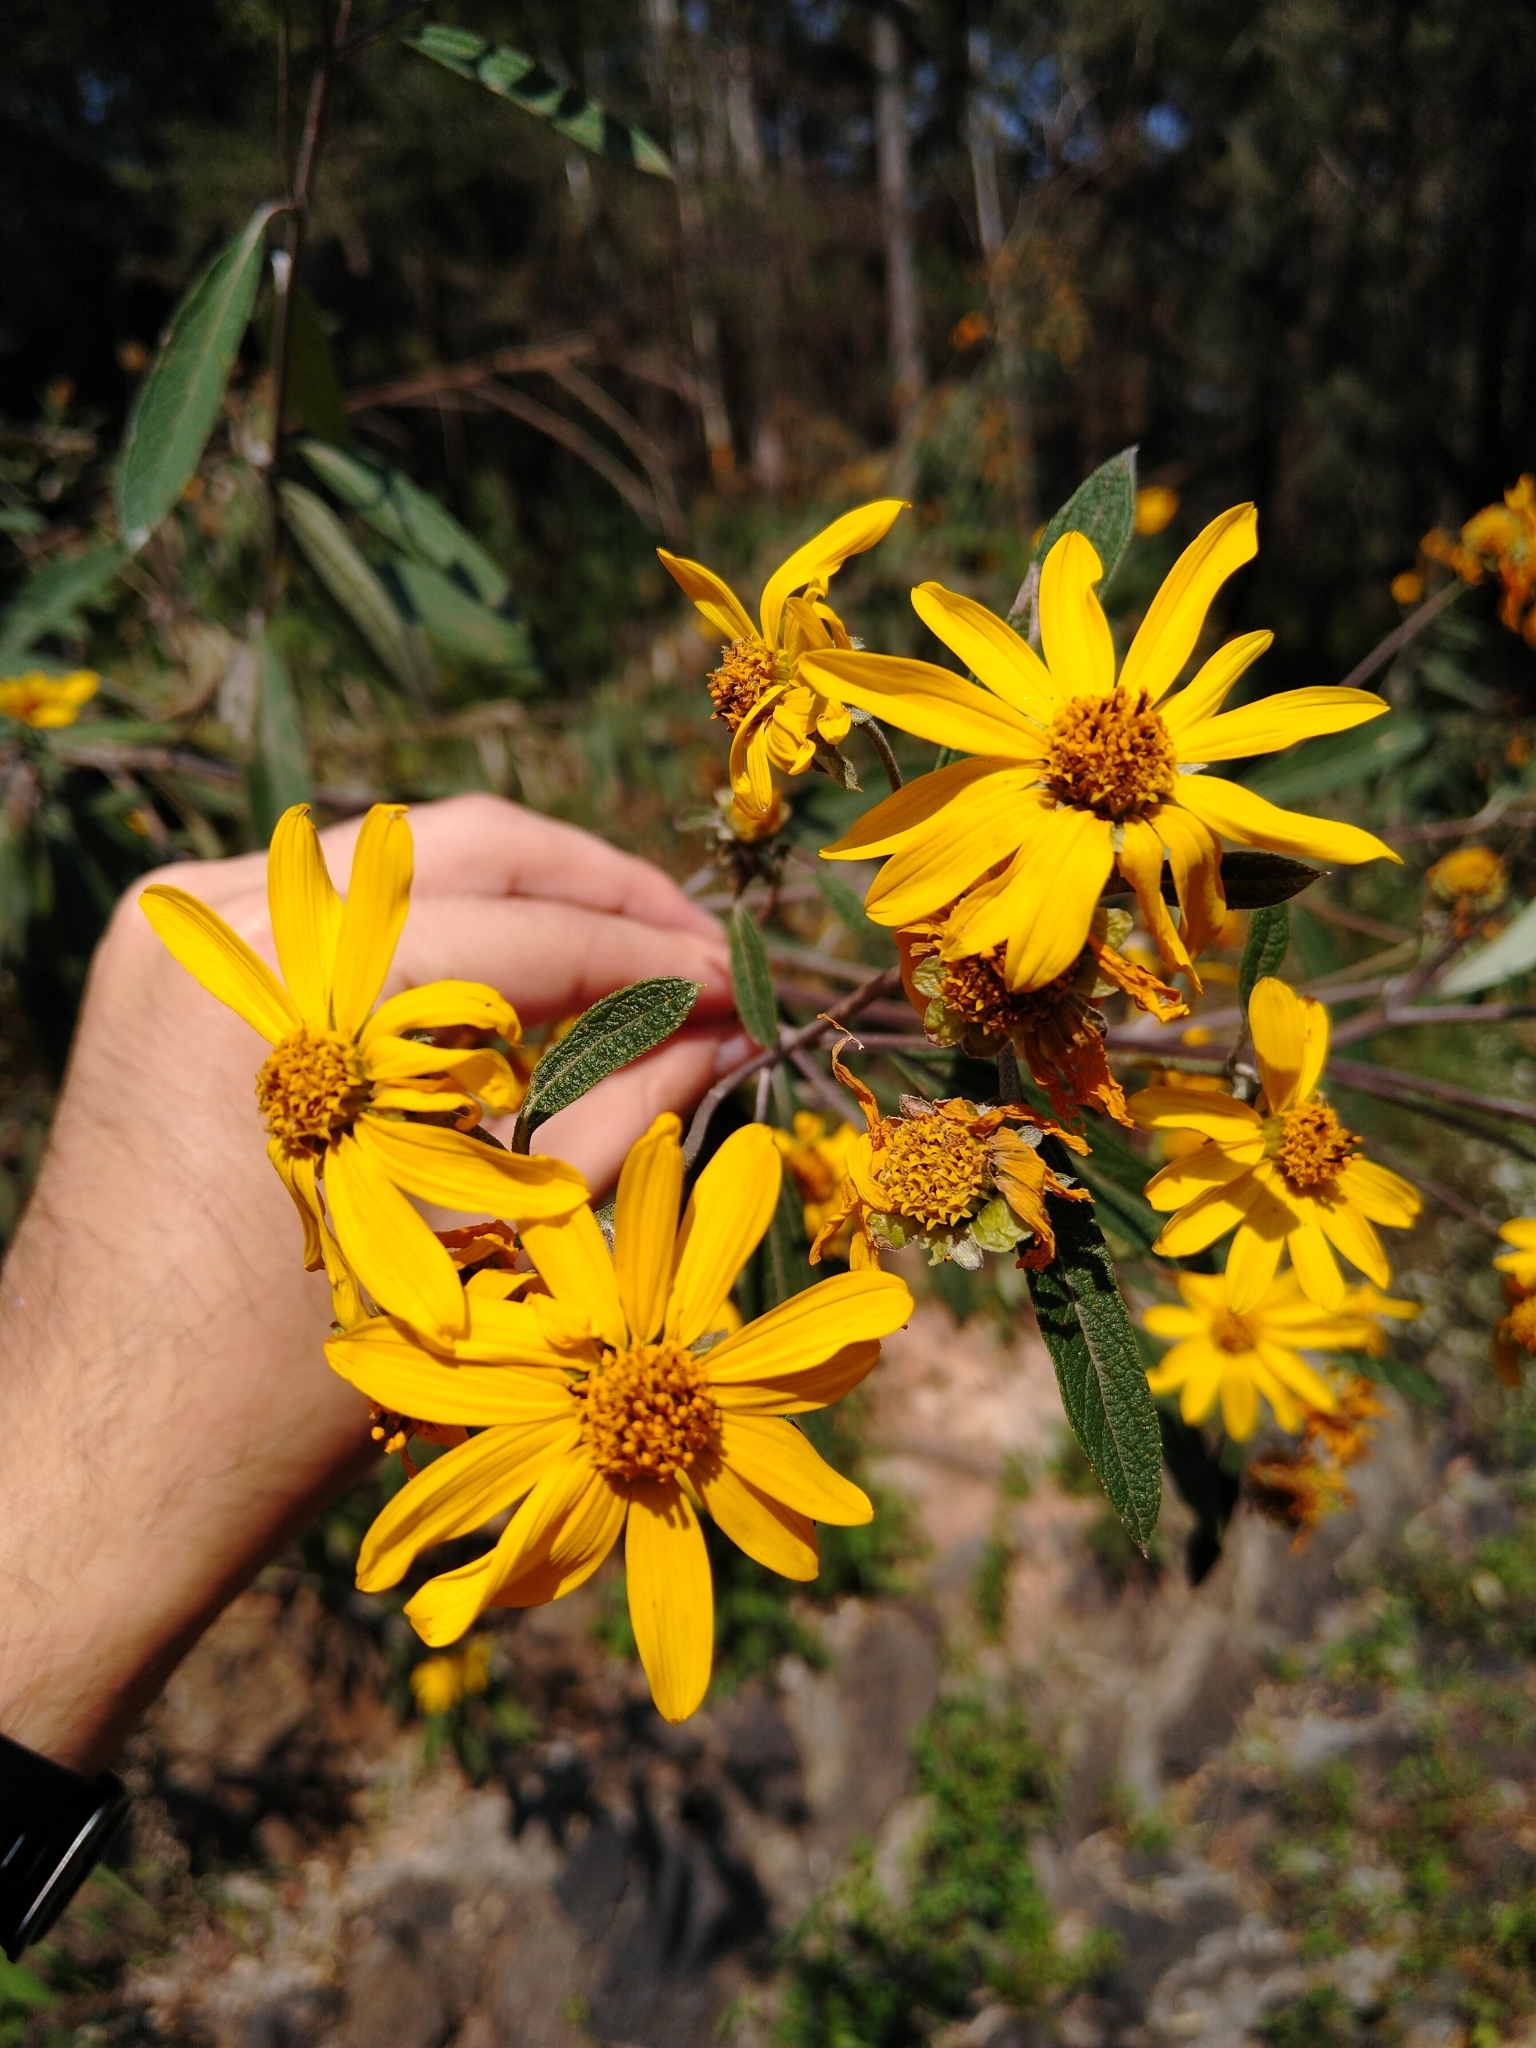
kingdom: Plantae
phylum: Tracheophyta
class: Magnoliopsida
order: Asterales
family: Asteraceae
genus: Aldama
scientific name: Aldama buddlejiformis
